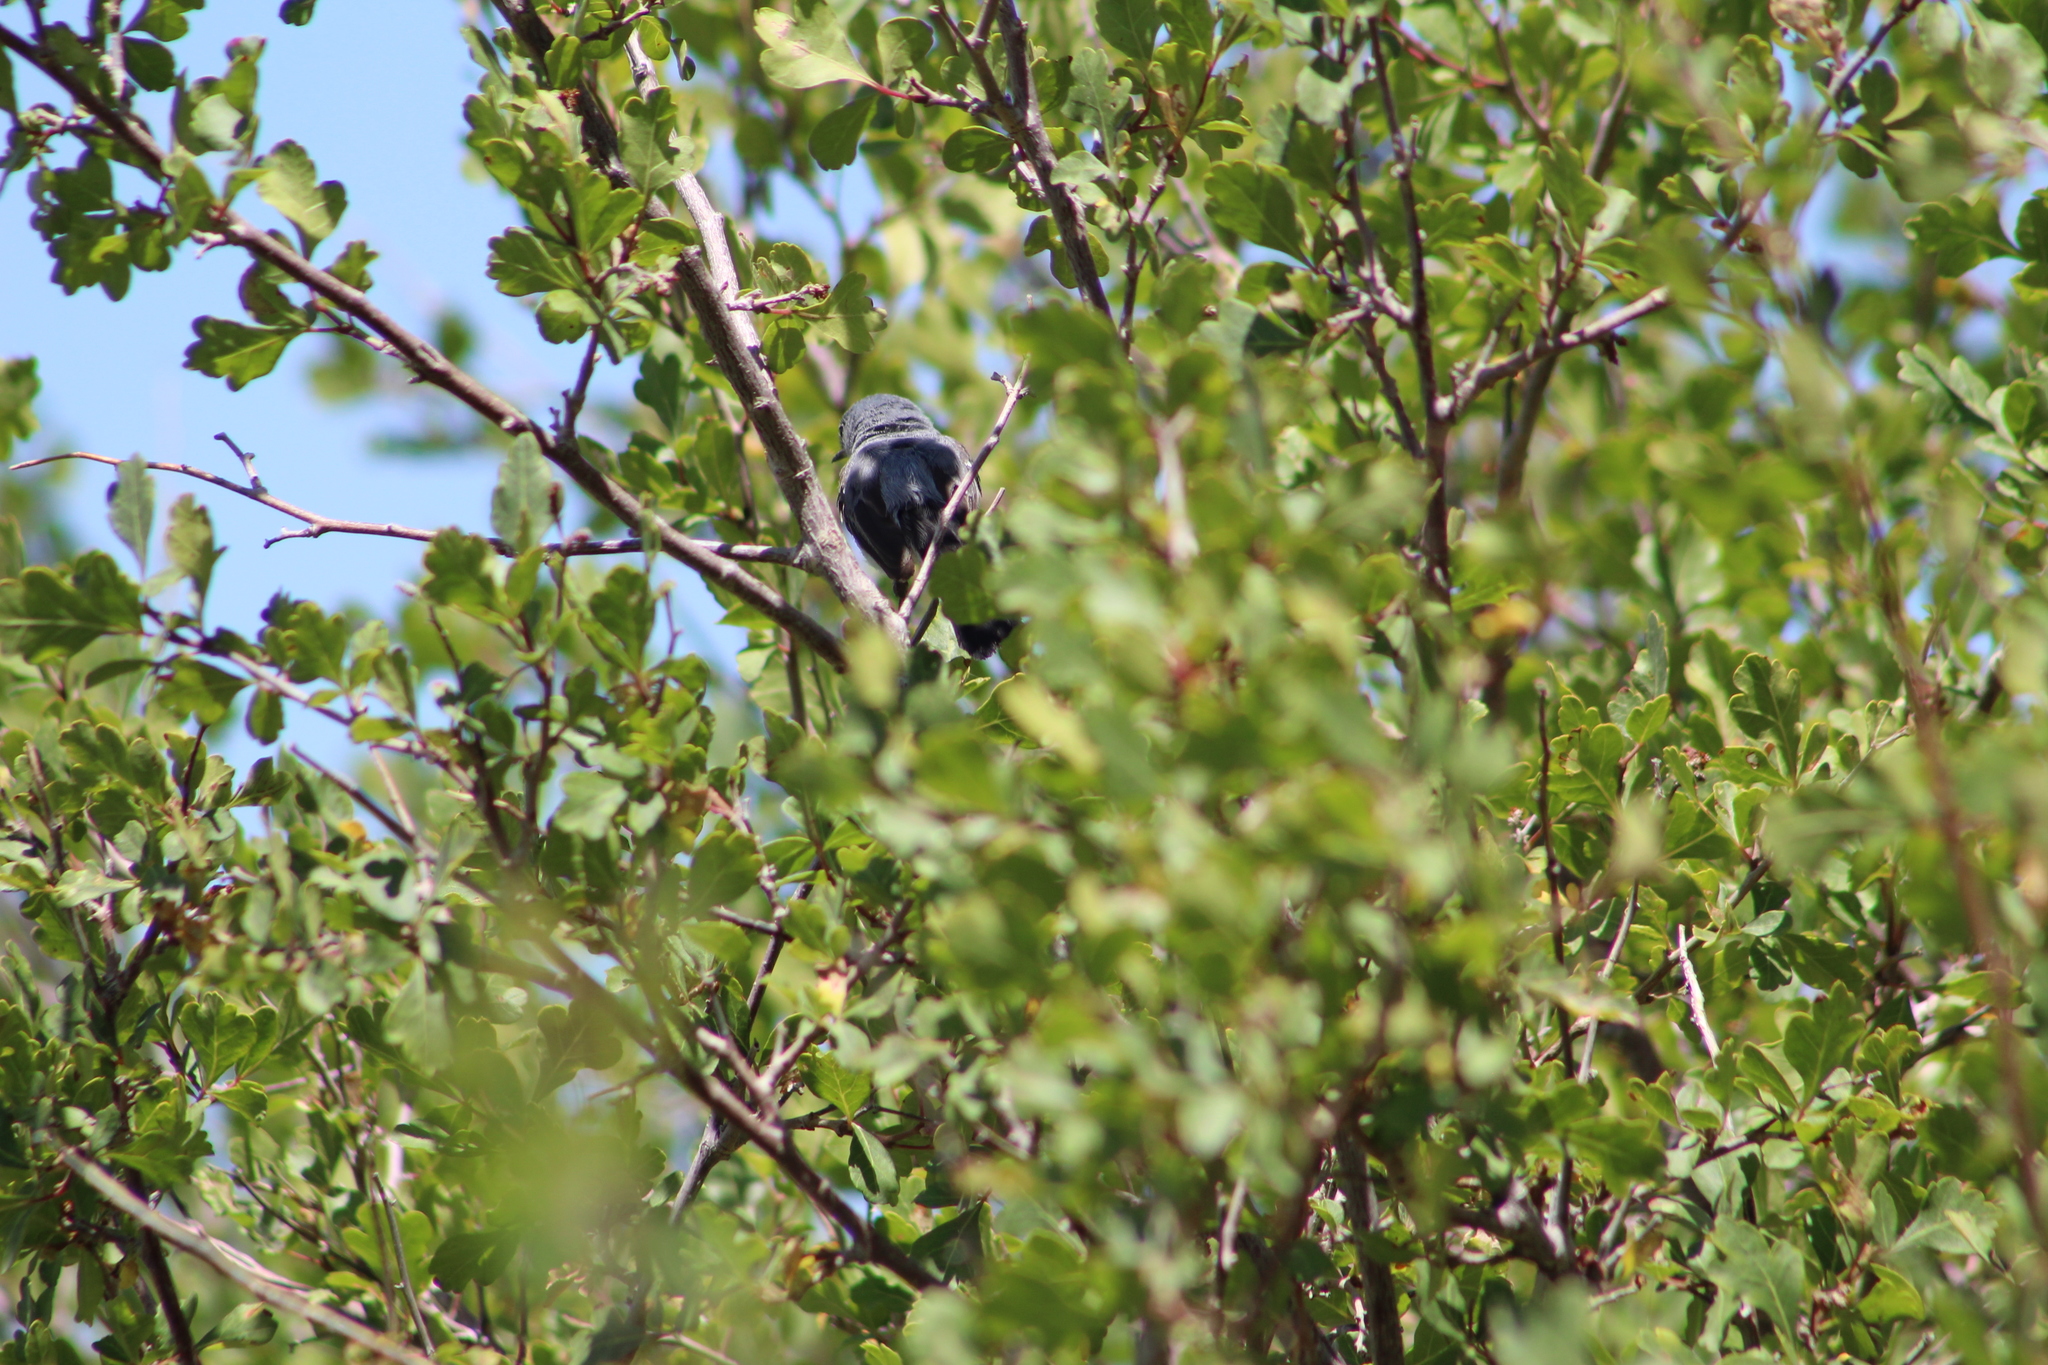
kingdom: Animalia
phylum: Chordata
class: Aves
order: Passeriformes
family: Polioptilidae
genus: Polioptila
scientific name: Polioptila caerulea
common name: Blue-gray gnatcatcher
